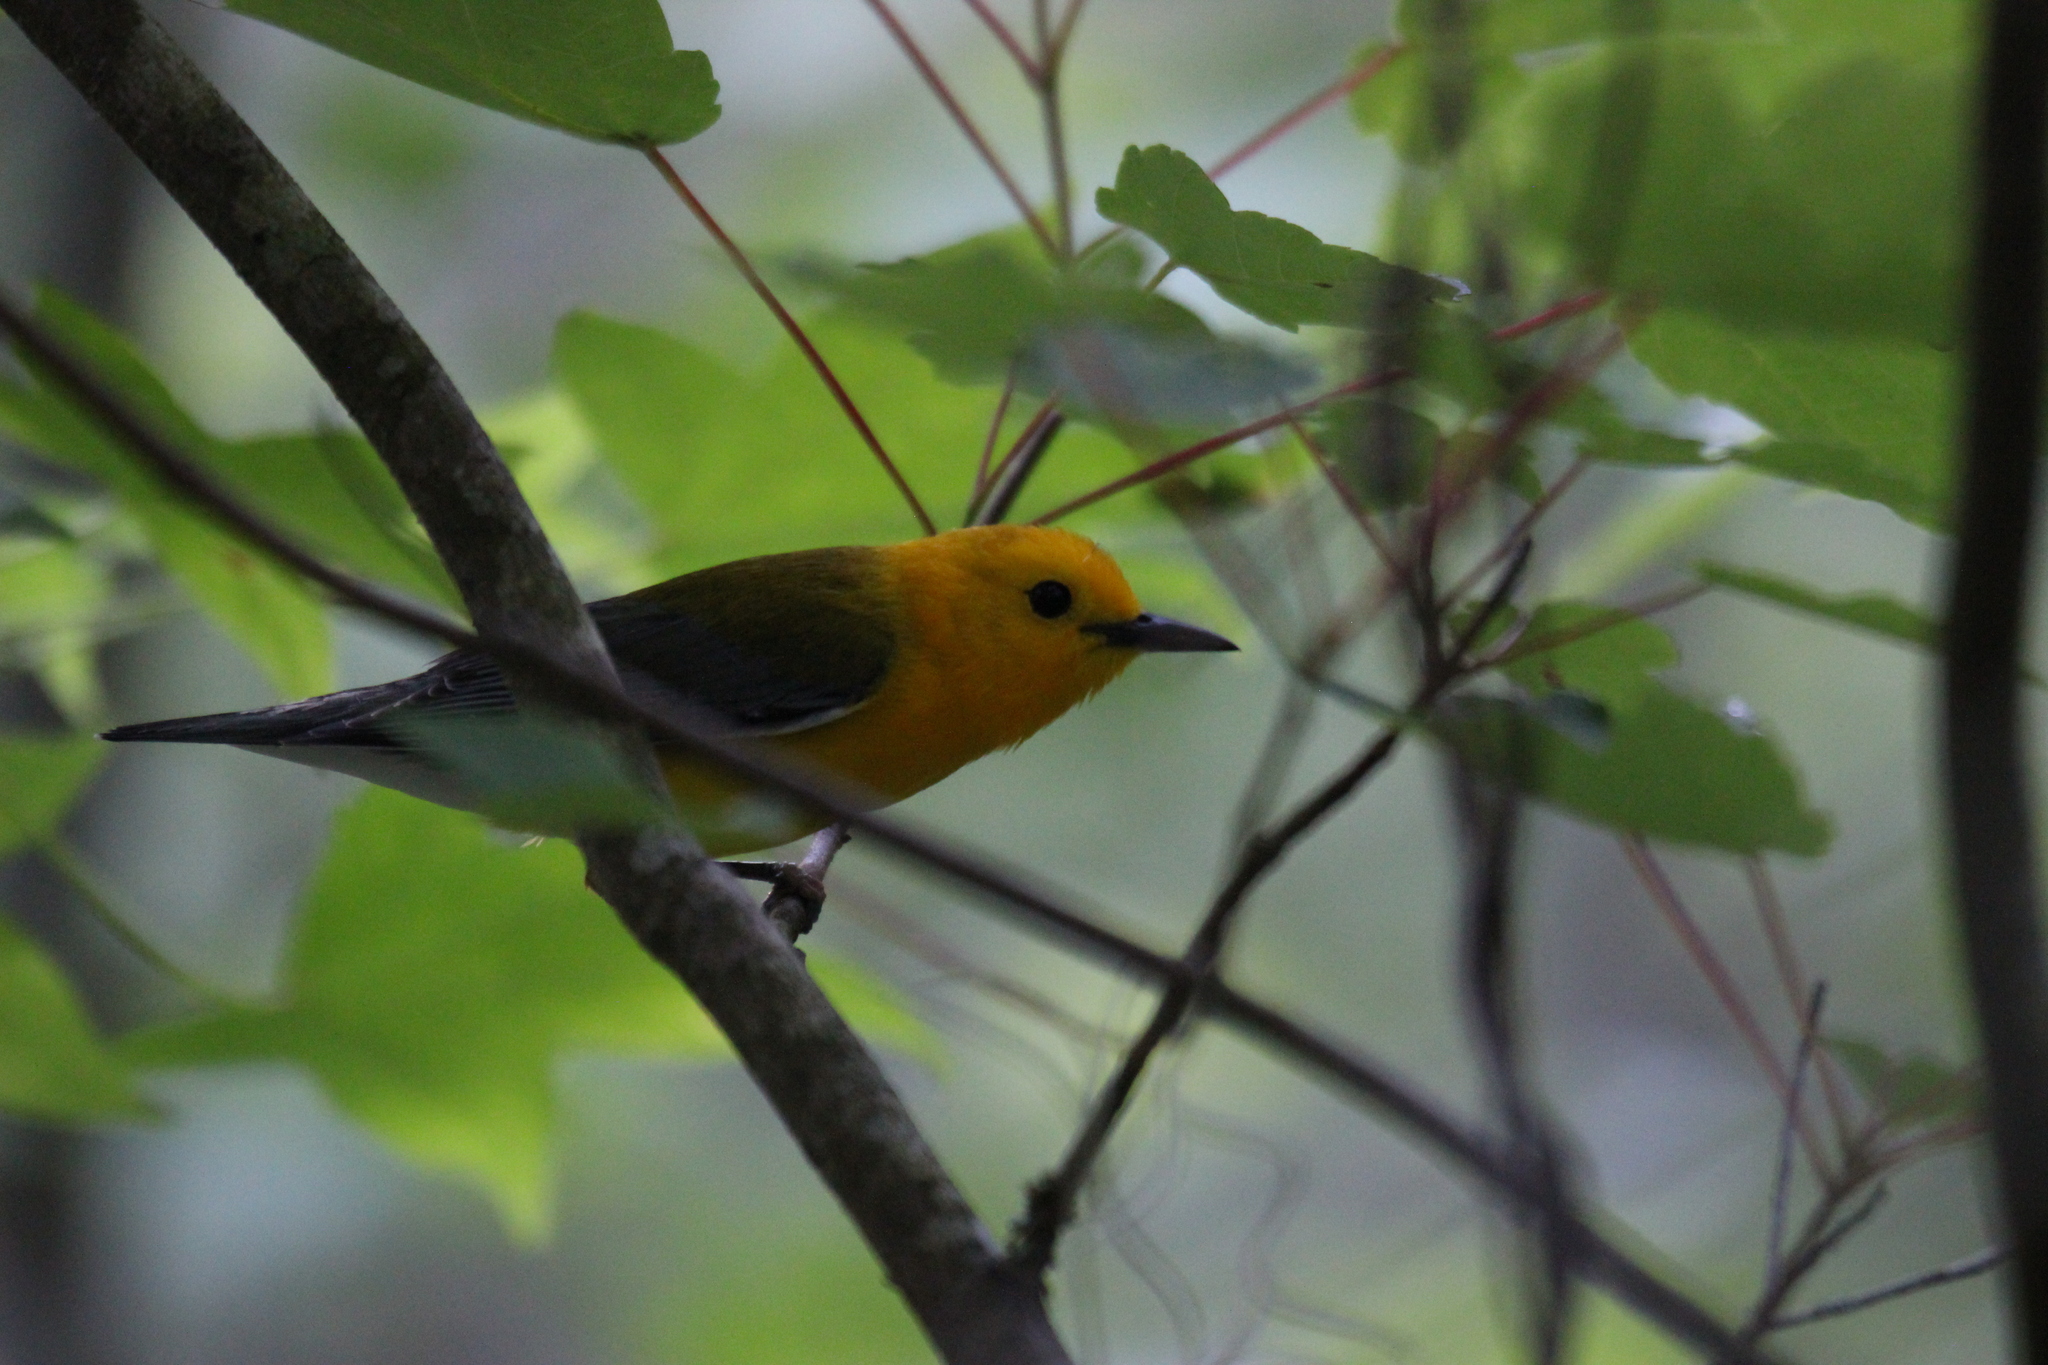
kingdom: Animalia
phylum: Chordata
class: Aves
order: Passeriformes
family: Parulidae
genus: Protonotaria
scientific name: Protonotaria citrea
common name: Prothonotary warbler
